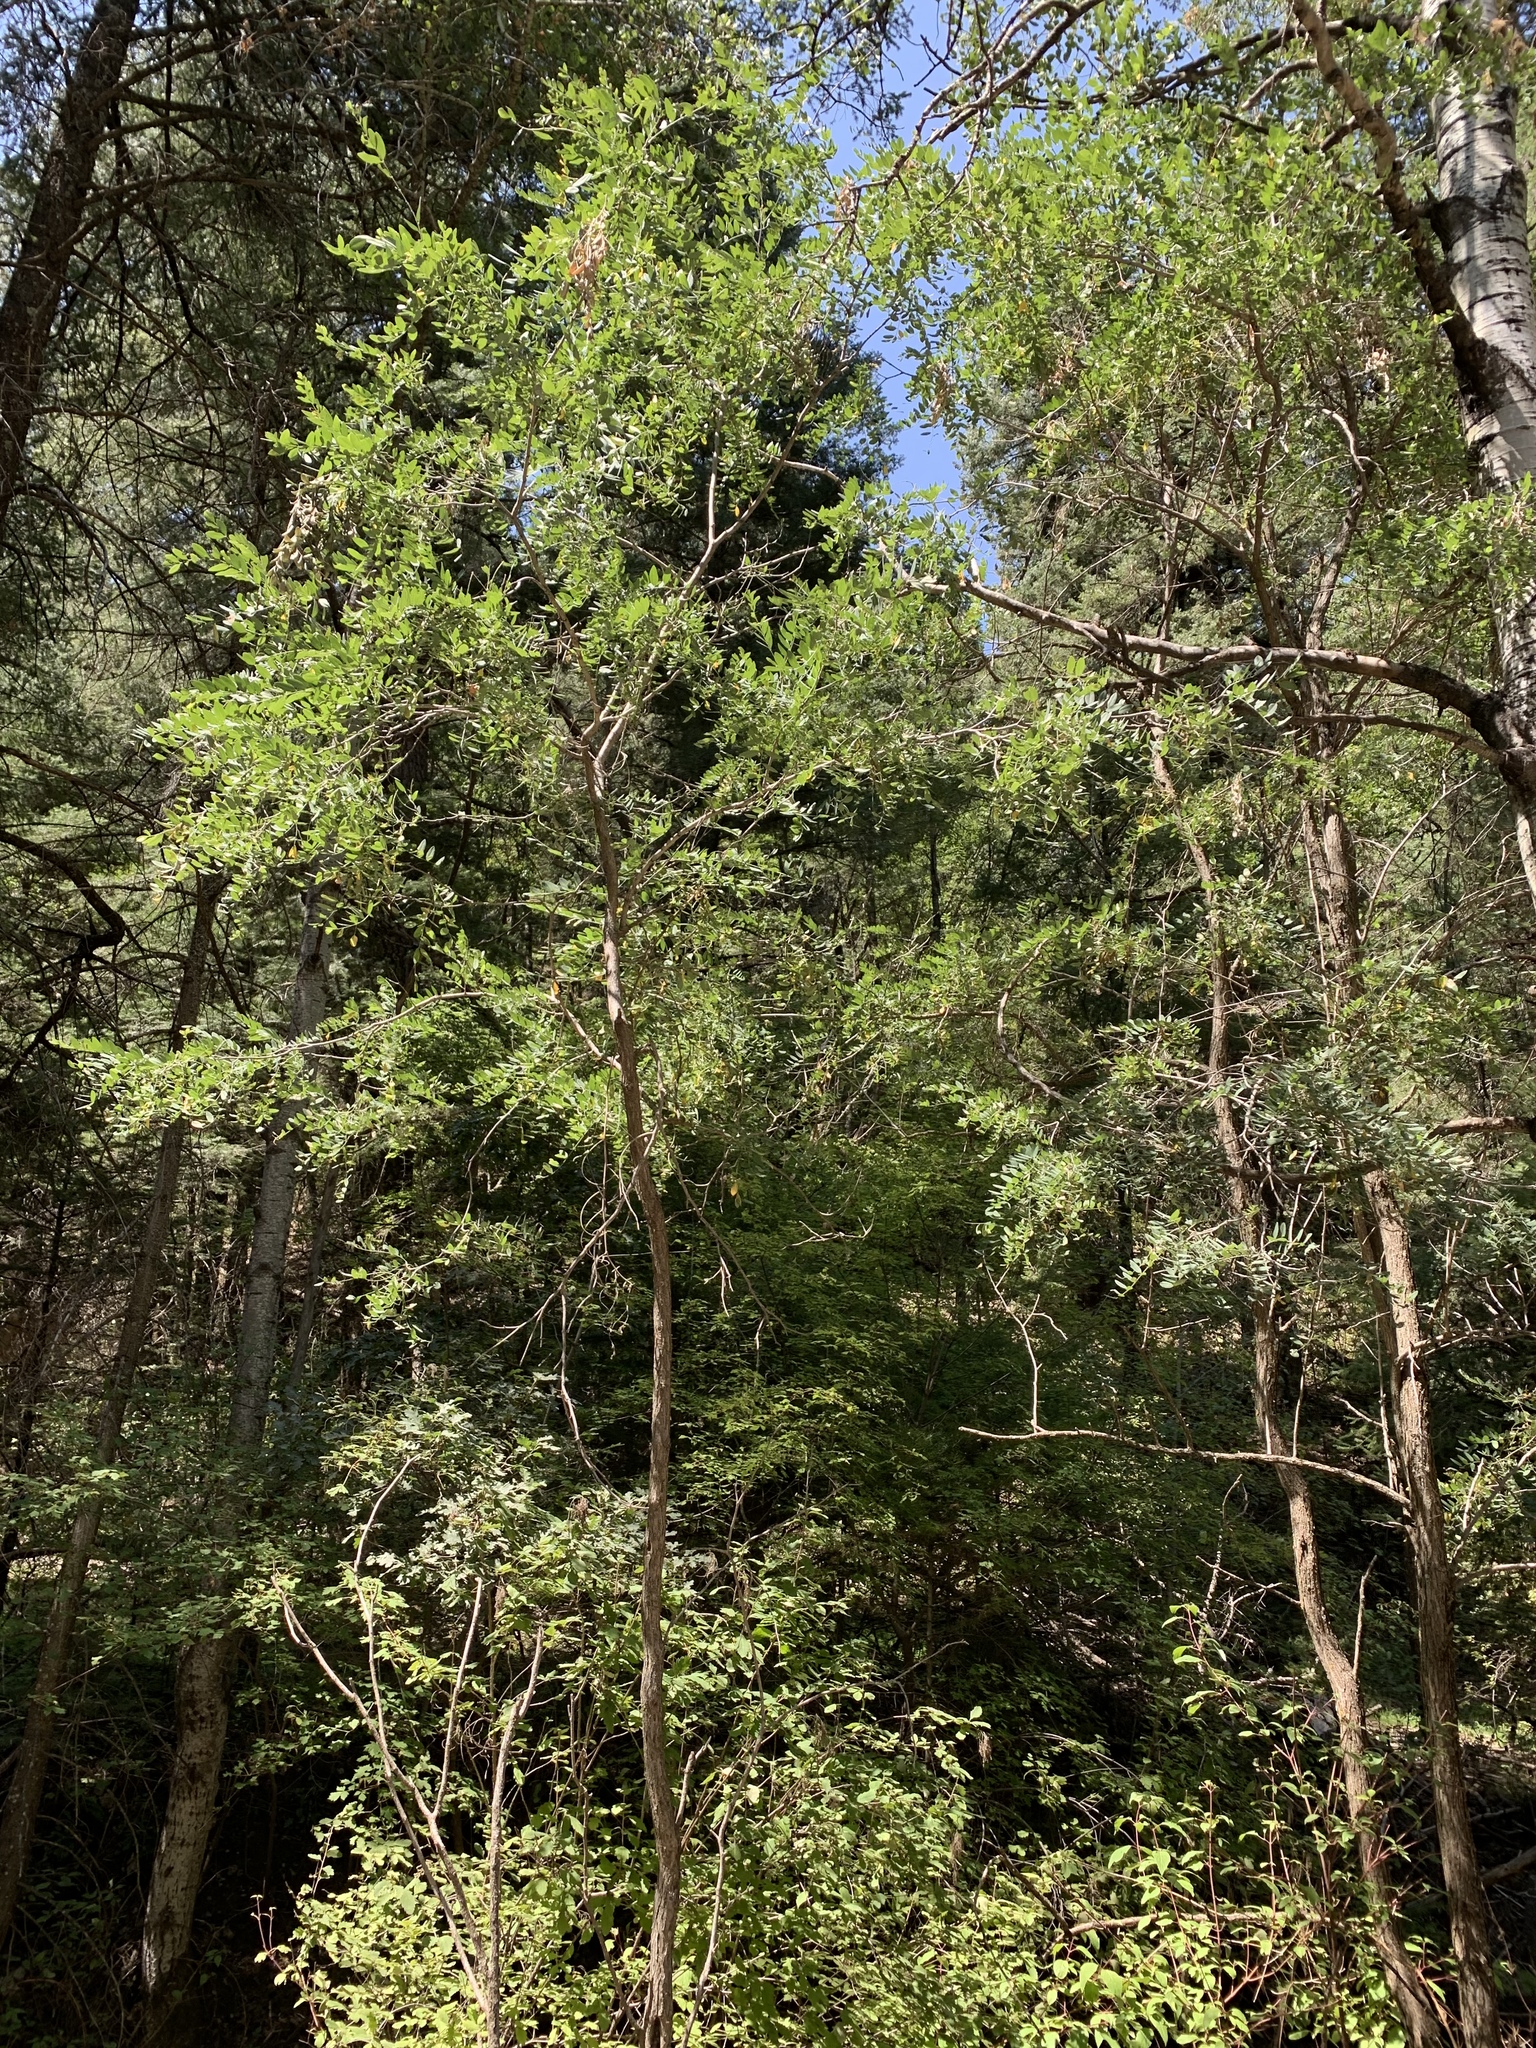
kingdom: Plantae
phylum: Tracheophyta
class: Magnoliopsida
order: Fabales
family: Fabaceae
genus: Robinia
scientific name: Robinia neomexicana
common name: New mexico locust
